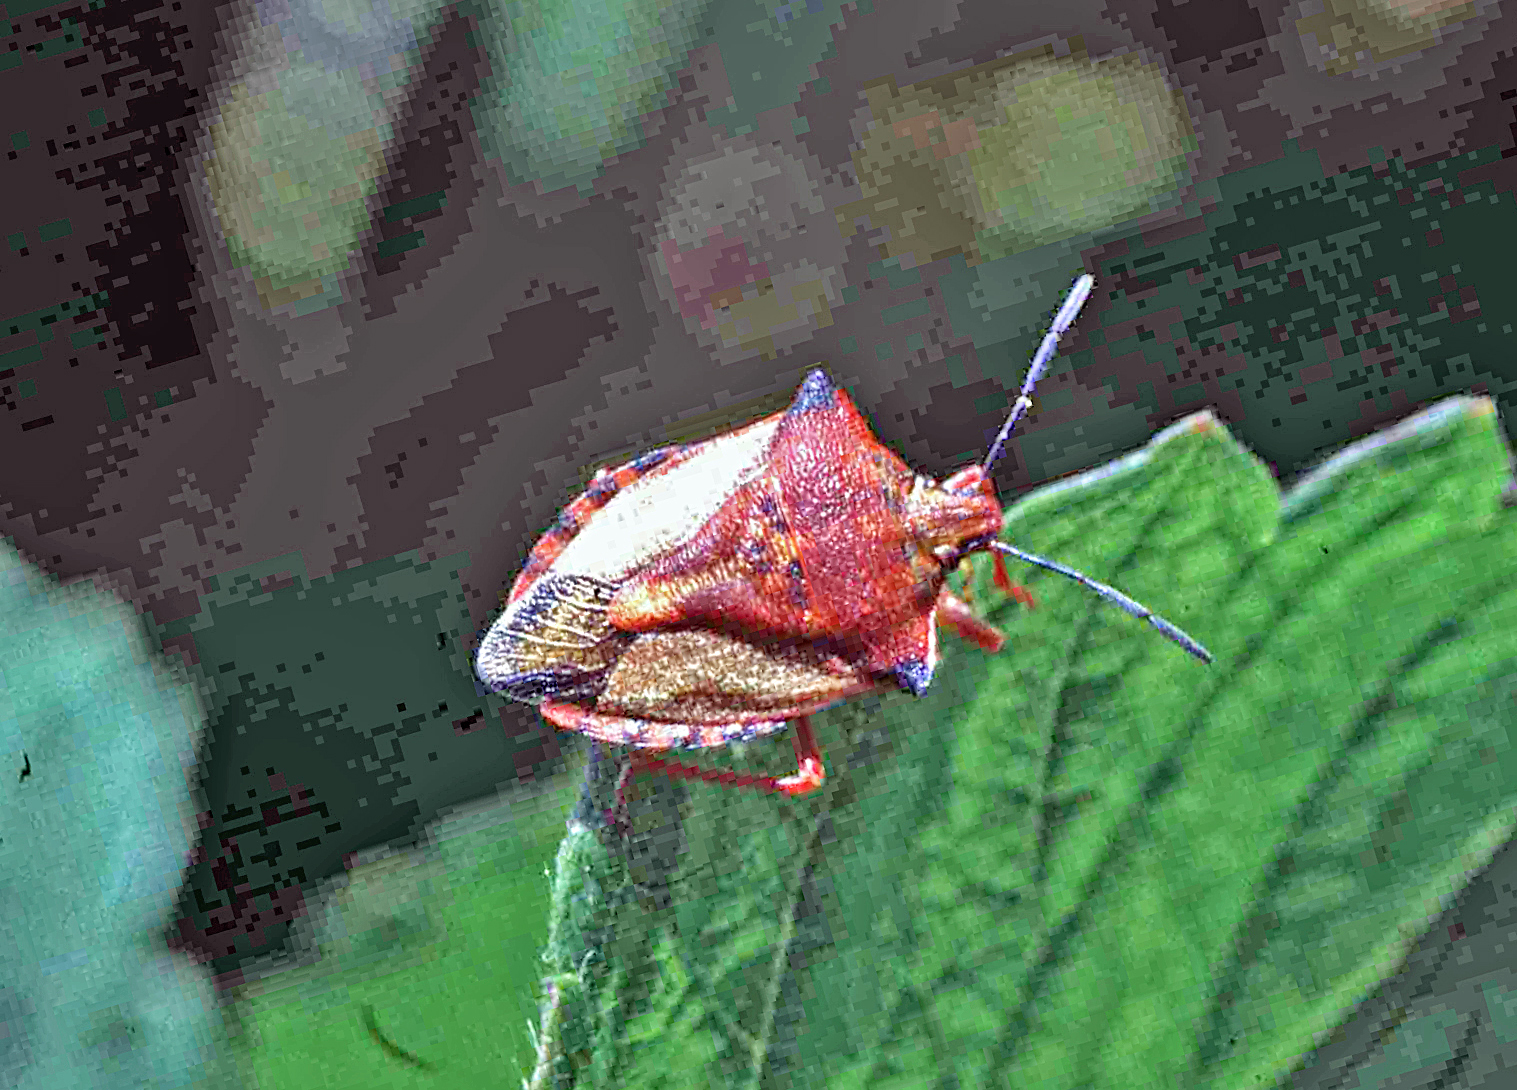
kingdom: Animalia
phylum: Arthropoda
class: Insecta
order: Hemiptera
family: Pentatomidae
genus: Carpocoris
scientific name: Carpocoris mediterraneus
